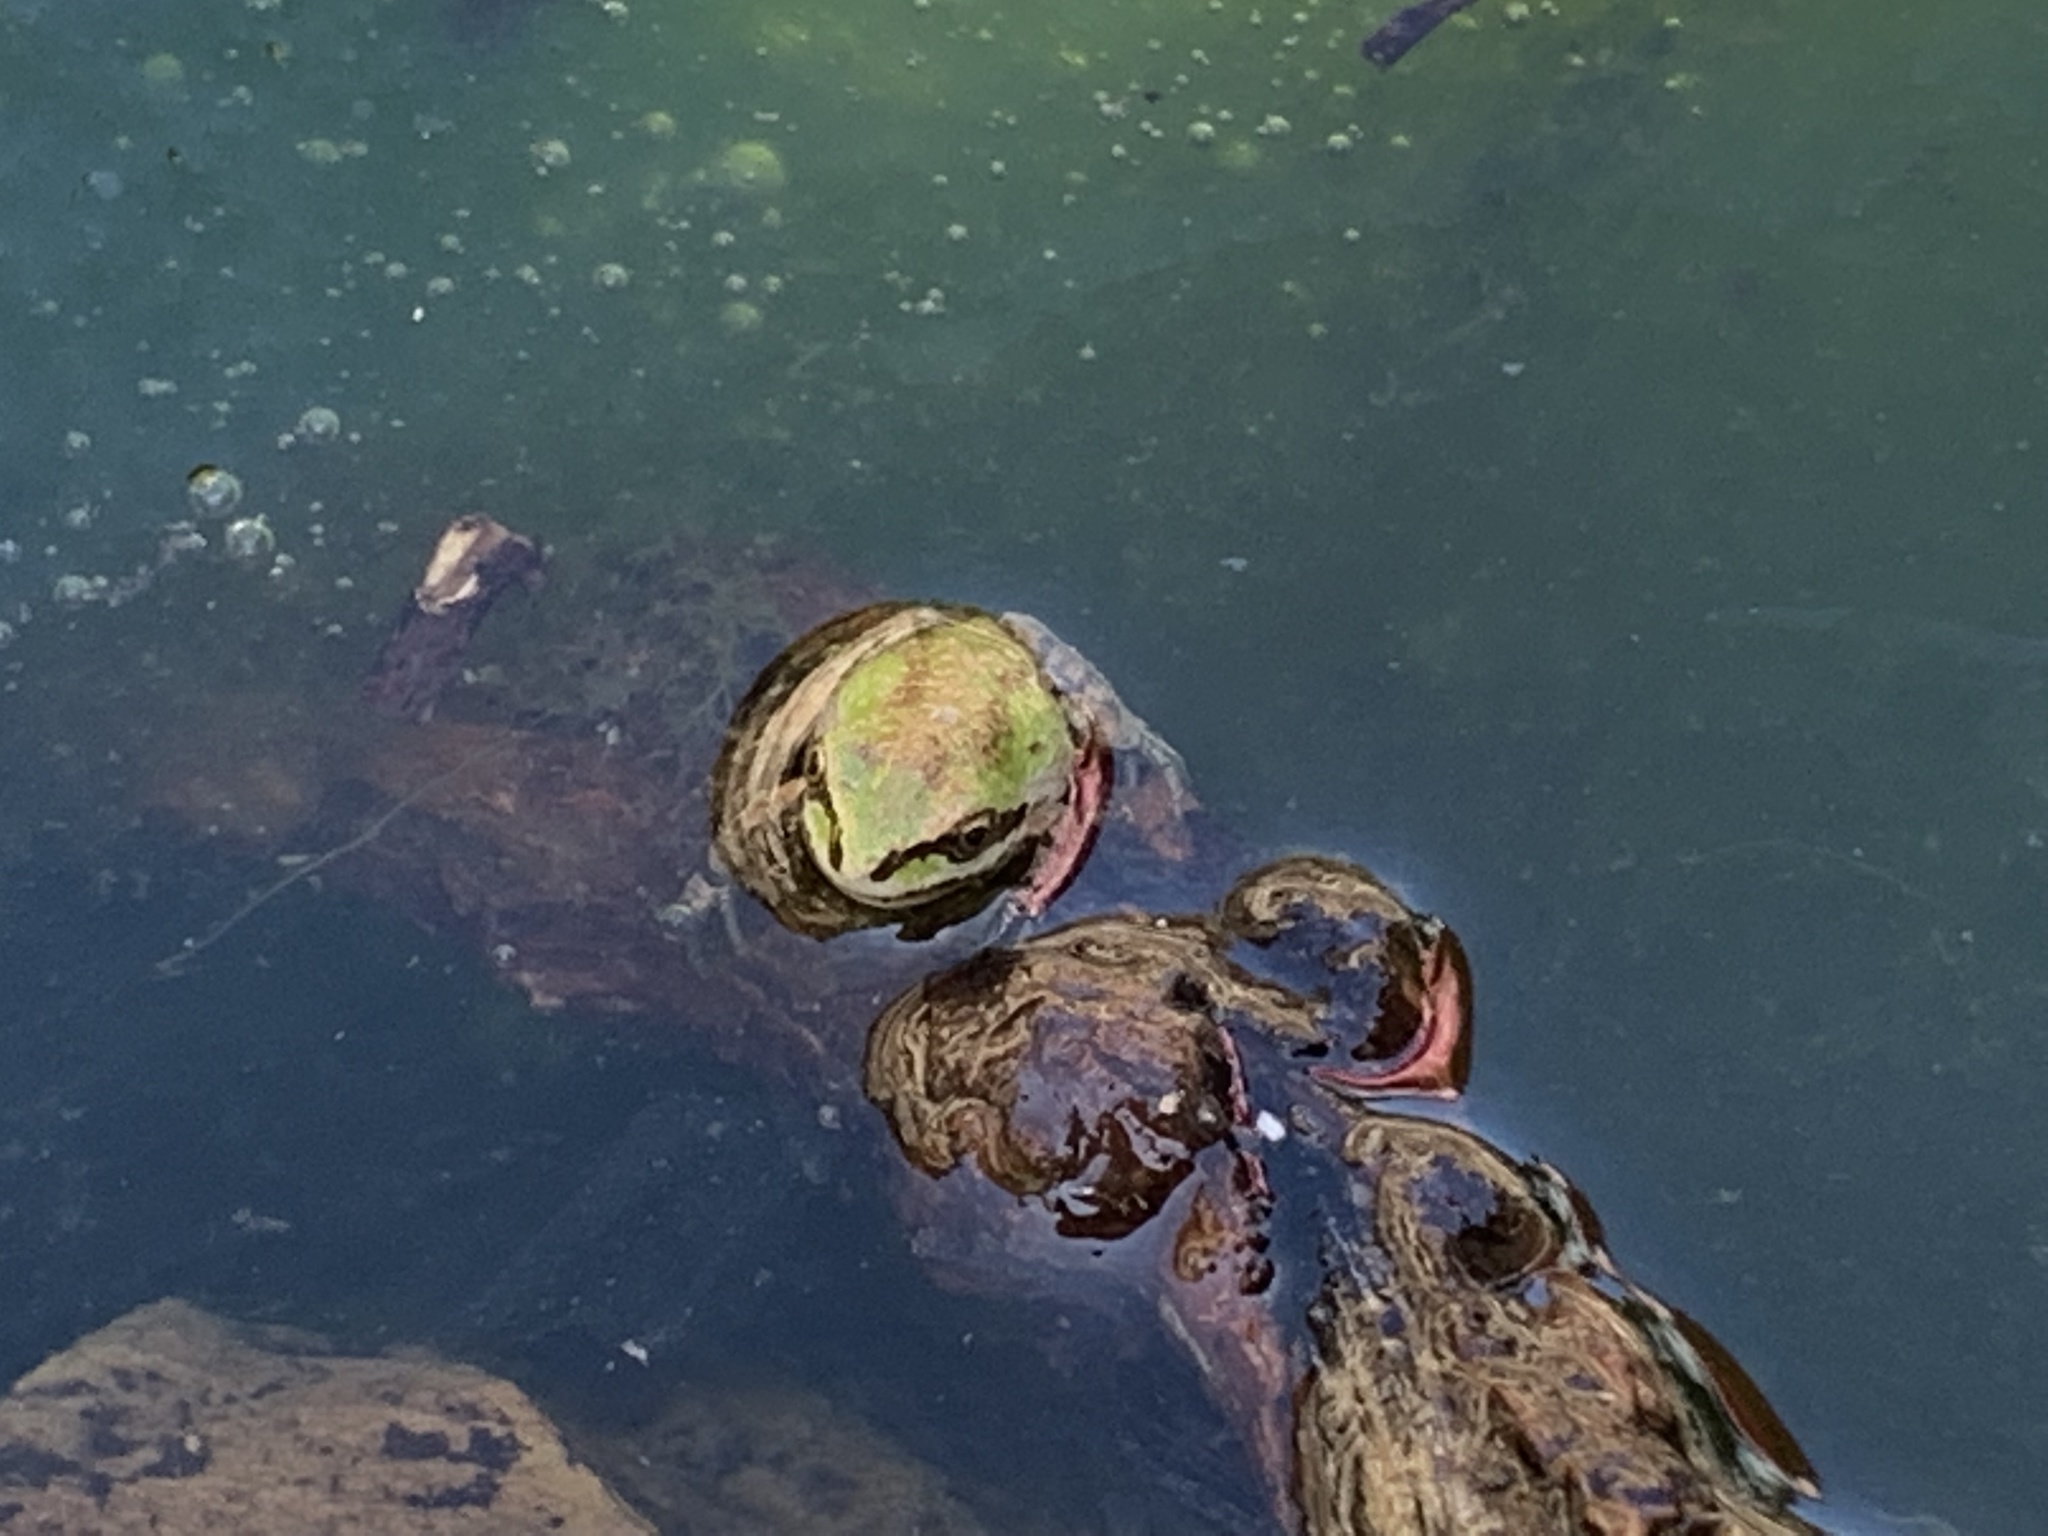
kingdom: Animalia
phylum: Chordata
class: Amphibia
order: Anura
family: Hylidae
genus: Pseudacris
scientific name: Pseudacris regilla
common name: Pacific chorus frog
